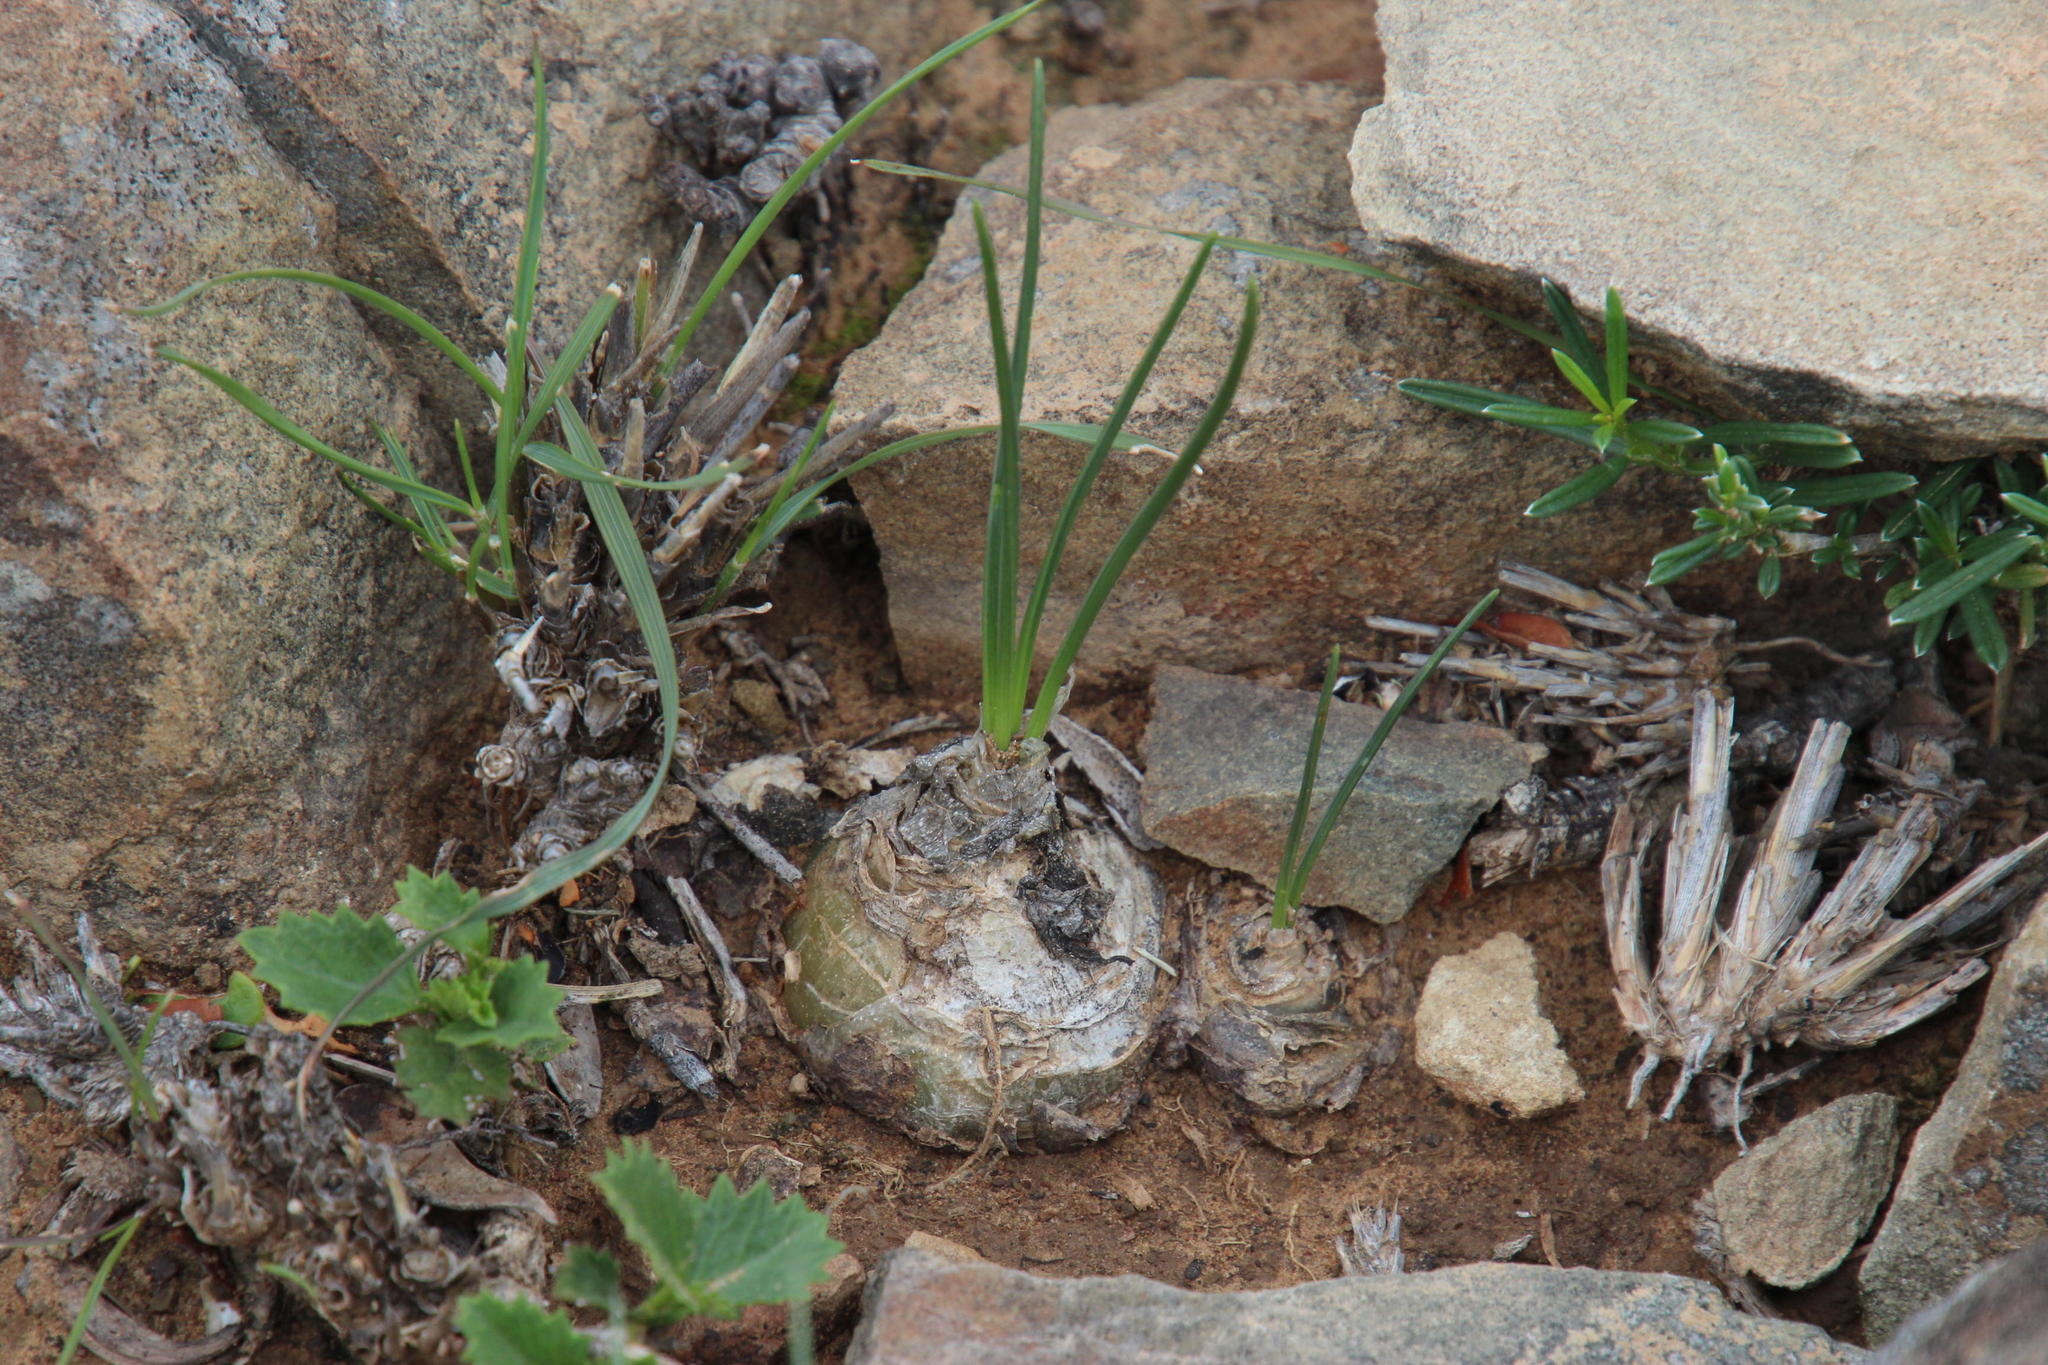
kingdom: Plantae
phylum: Tracheophyta
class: Liliopsida
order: Asparagales
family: Asparagaceae
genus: Drimia
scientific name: Drimia sclerophylla
